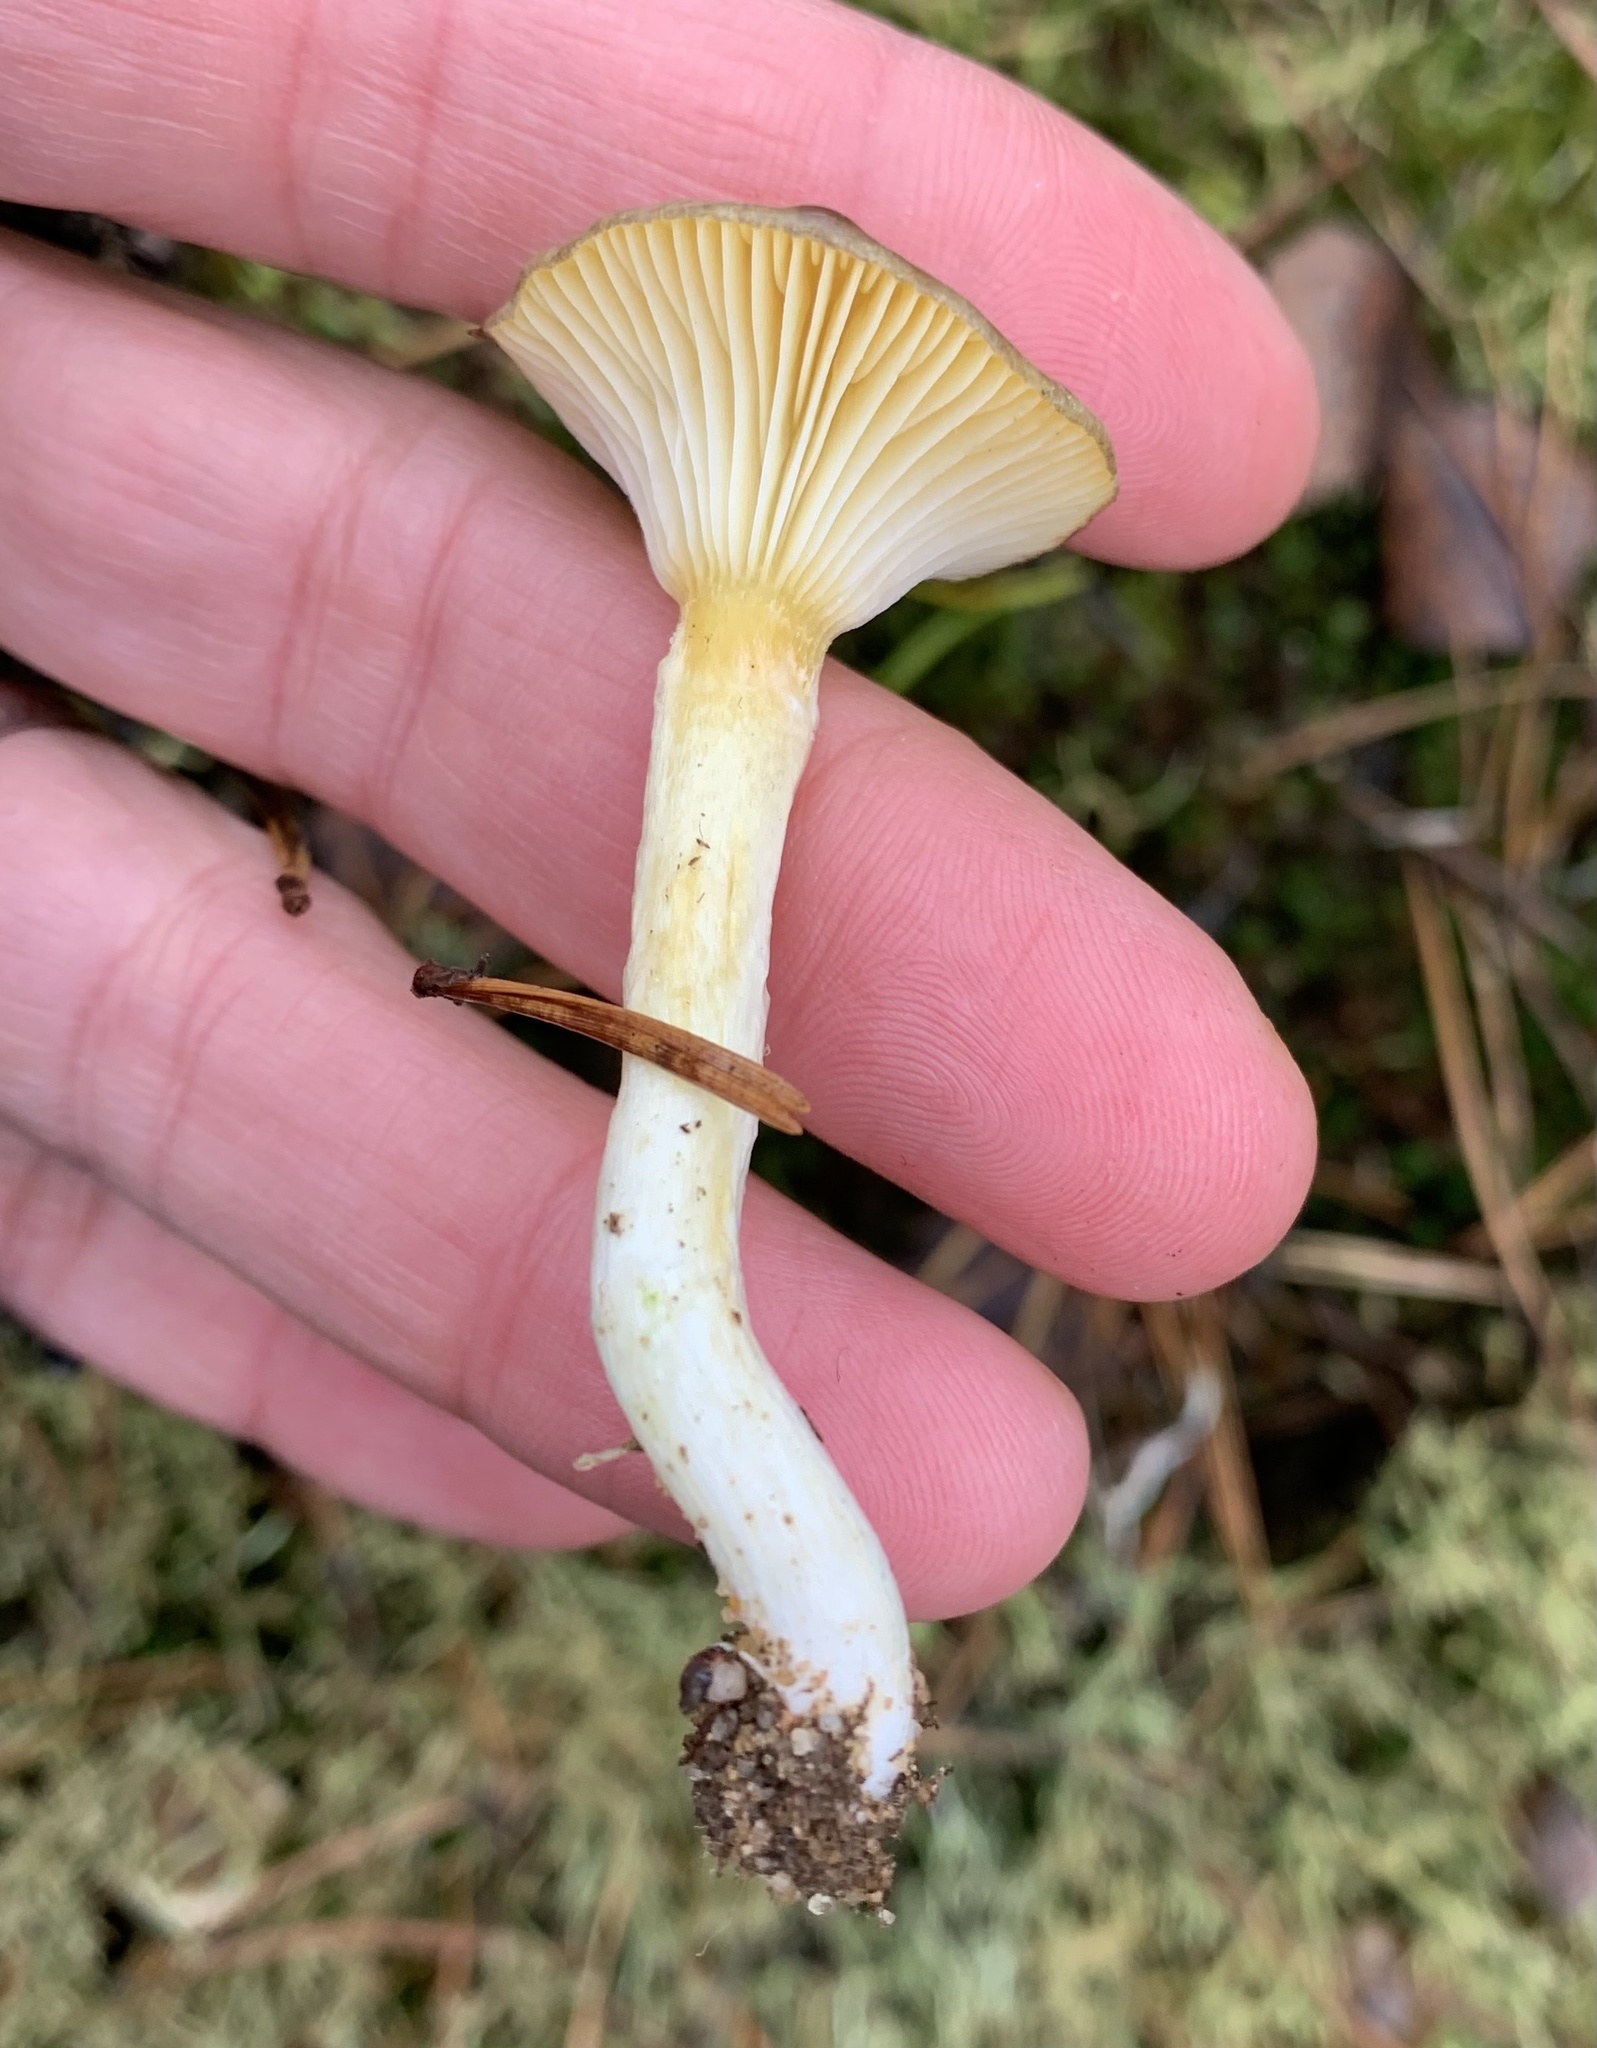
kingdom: Fungi
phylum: Basidiomycota
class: Agaricomycetes
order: Agaricales
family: Hygrophoraceae
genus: Hygrophorus
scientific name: Hygrophorus hypothejus
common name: Herald of winter
